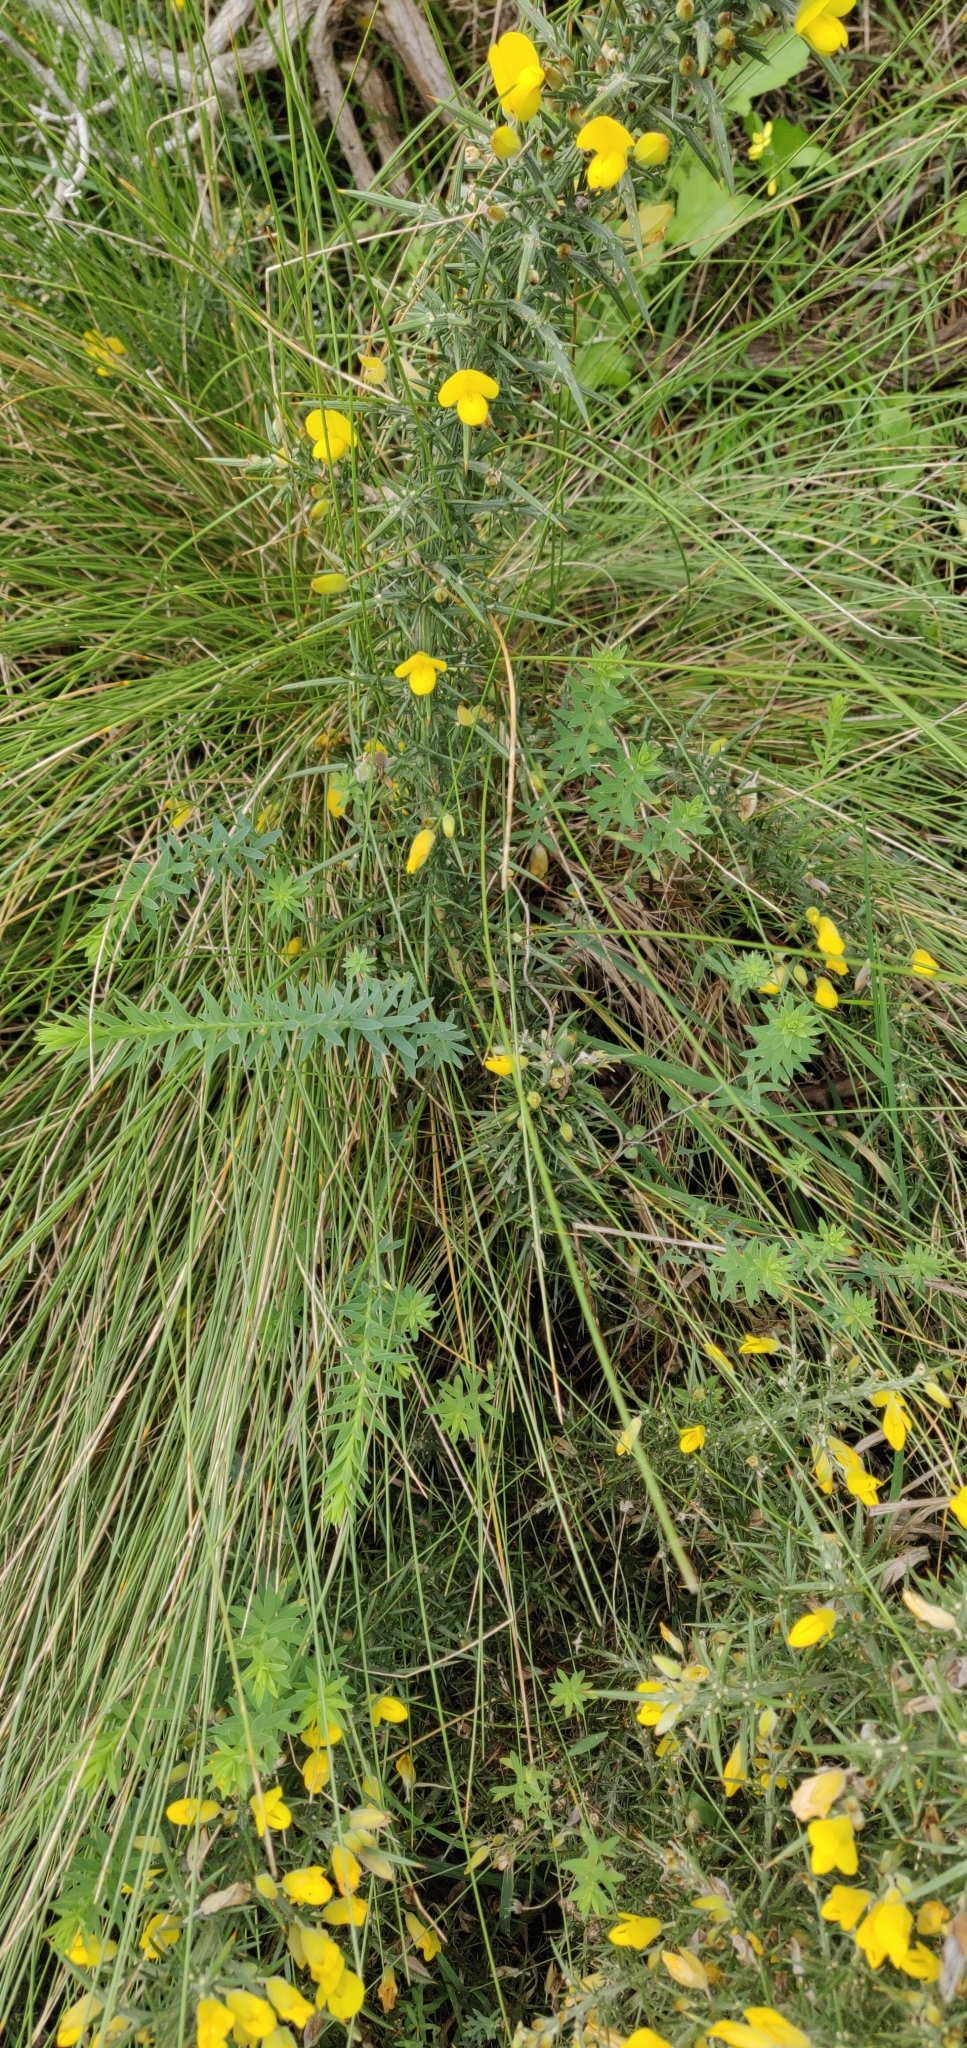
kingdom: Plantae
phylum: Tracheophyta
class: Magnoliopsida
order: Malpighiales
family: Linaceae
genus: Linum
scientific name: Linum monogynum
